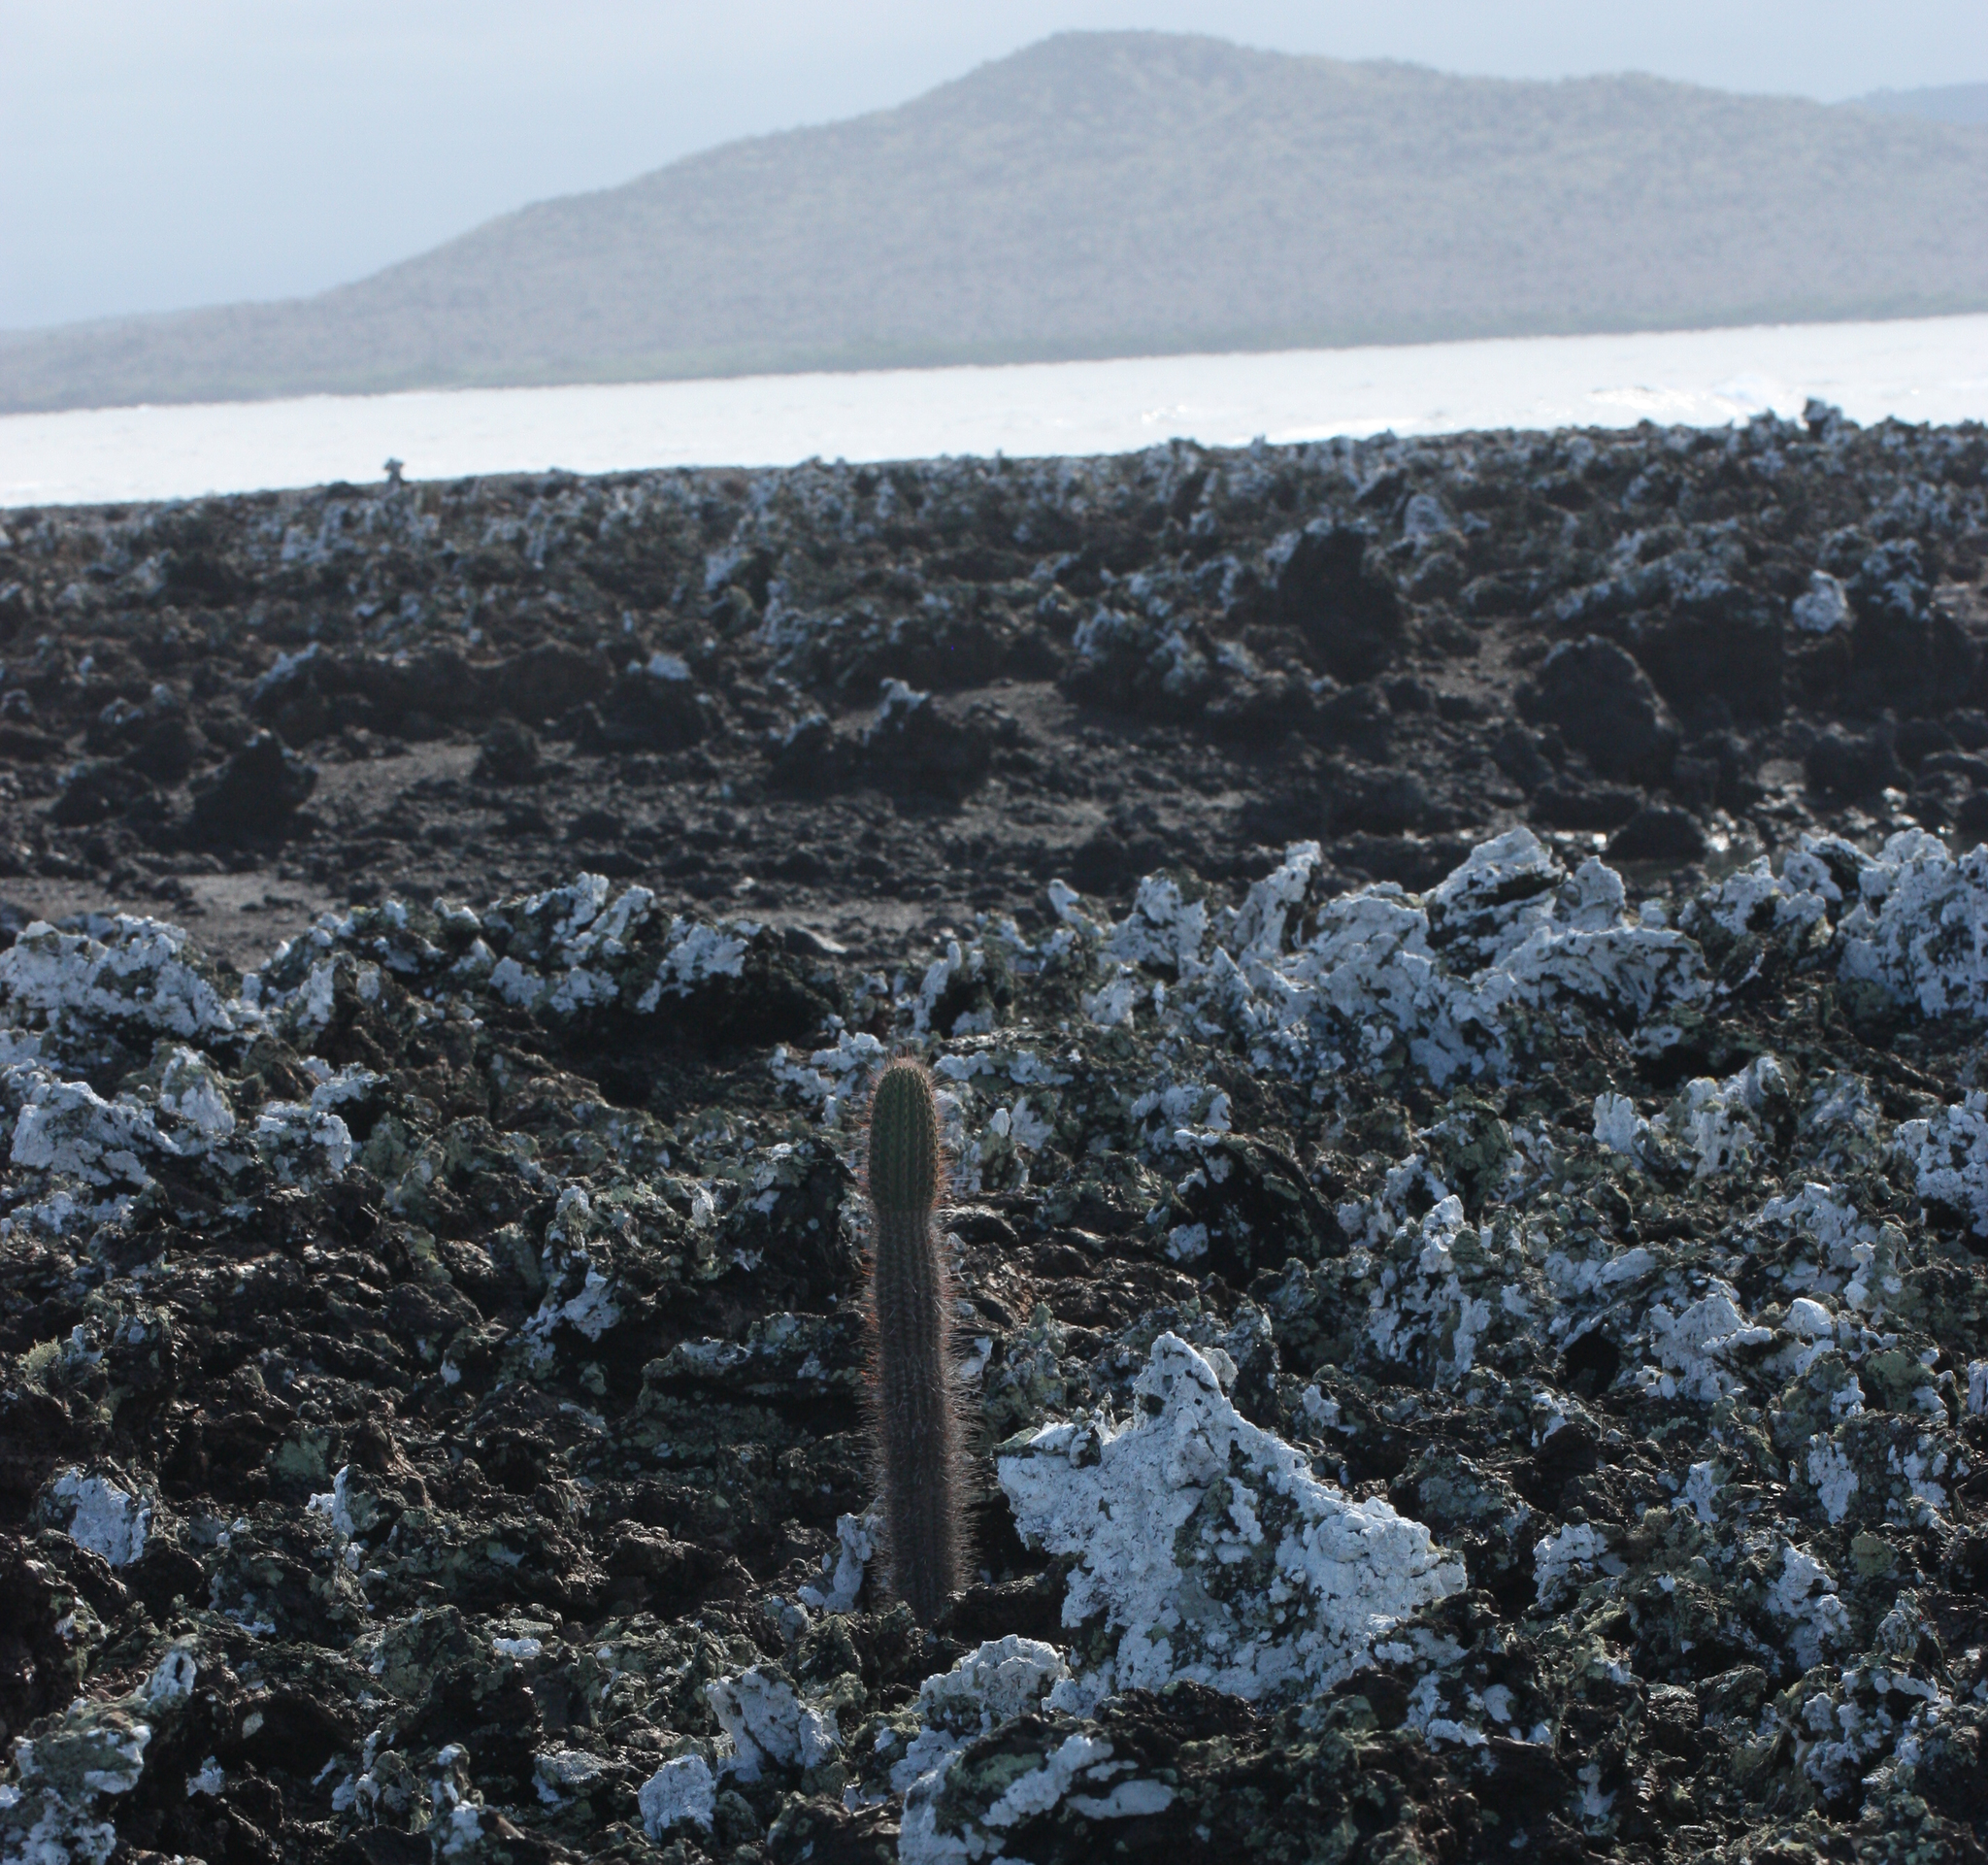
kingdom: Plantae
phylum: Tracheophyta
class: Magnoliopsida
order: Caryophyllales
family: Cactaceae
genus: Jasminocereus
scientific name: Jasminocereus thouarsii
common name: Candelabra cactus
